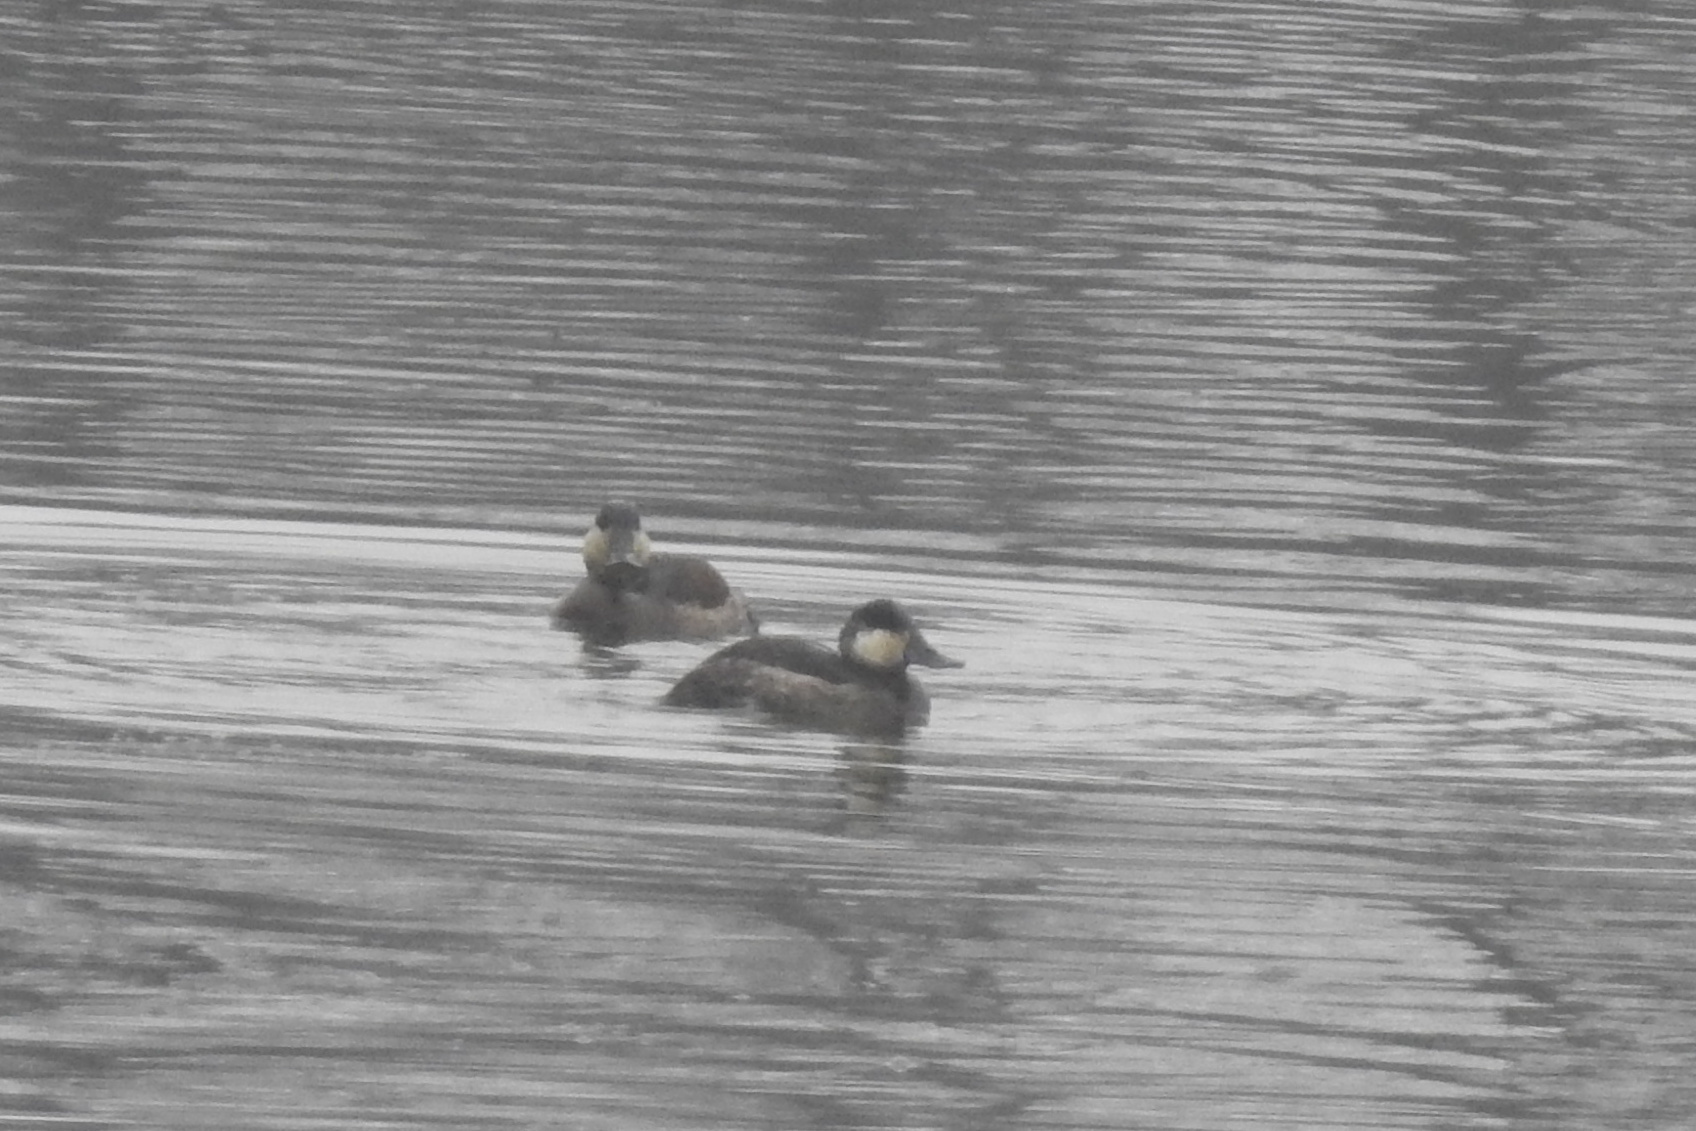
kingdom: Animalia
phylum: Chordata
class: Aves
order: Anseriformes
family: Anatidae
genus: Oxyura
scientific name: Oxyura jamaicensis
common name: Ruddy duck
